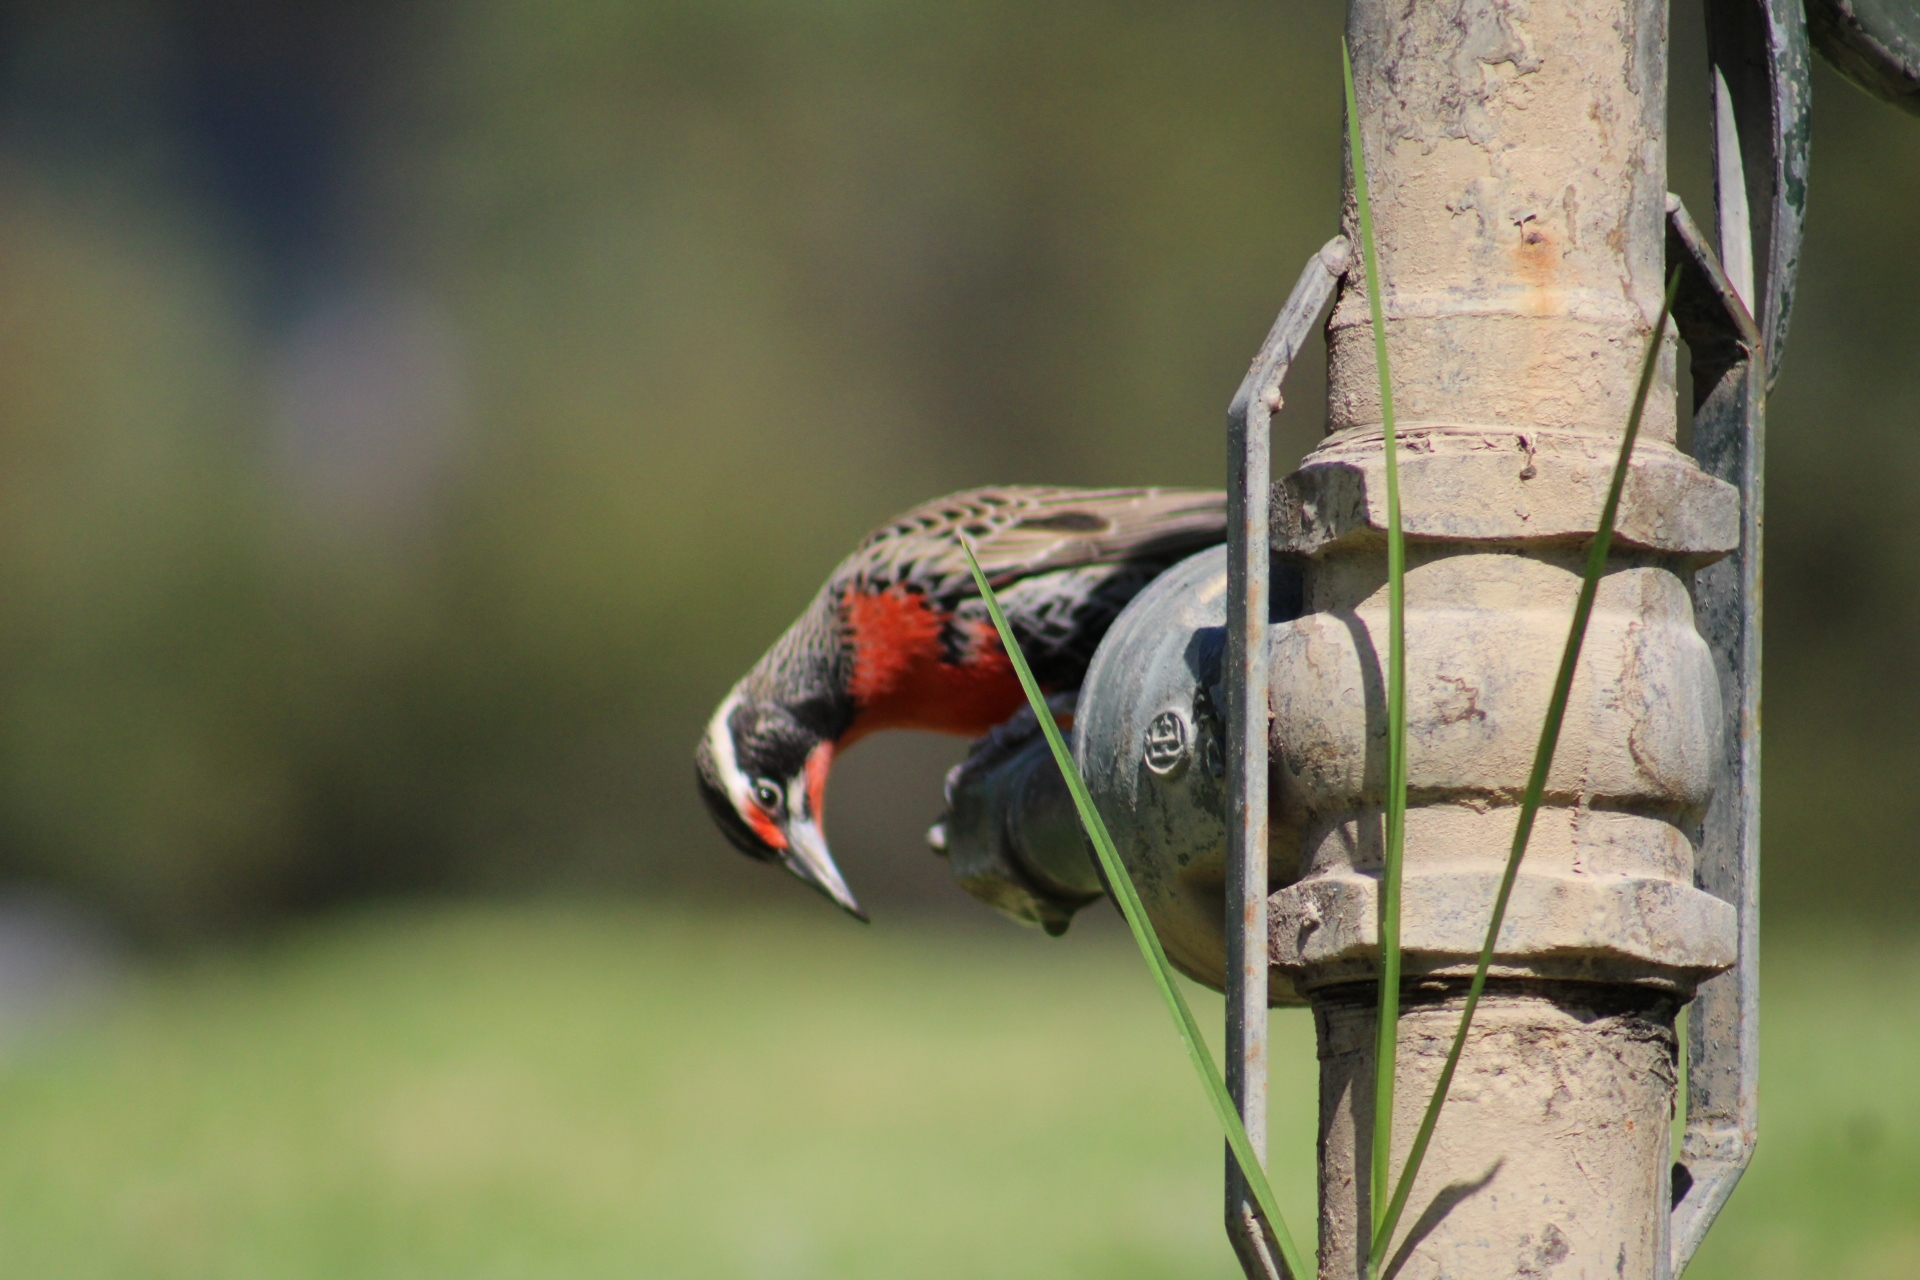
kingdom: Animalia
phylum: Chordata
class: Aves
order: Passeriformes
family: Icteridae
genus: Sturnella
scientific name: Sturnella loyca
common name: Long-tailed meadowlark
